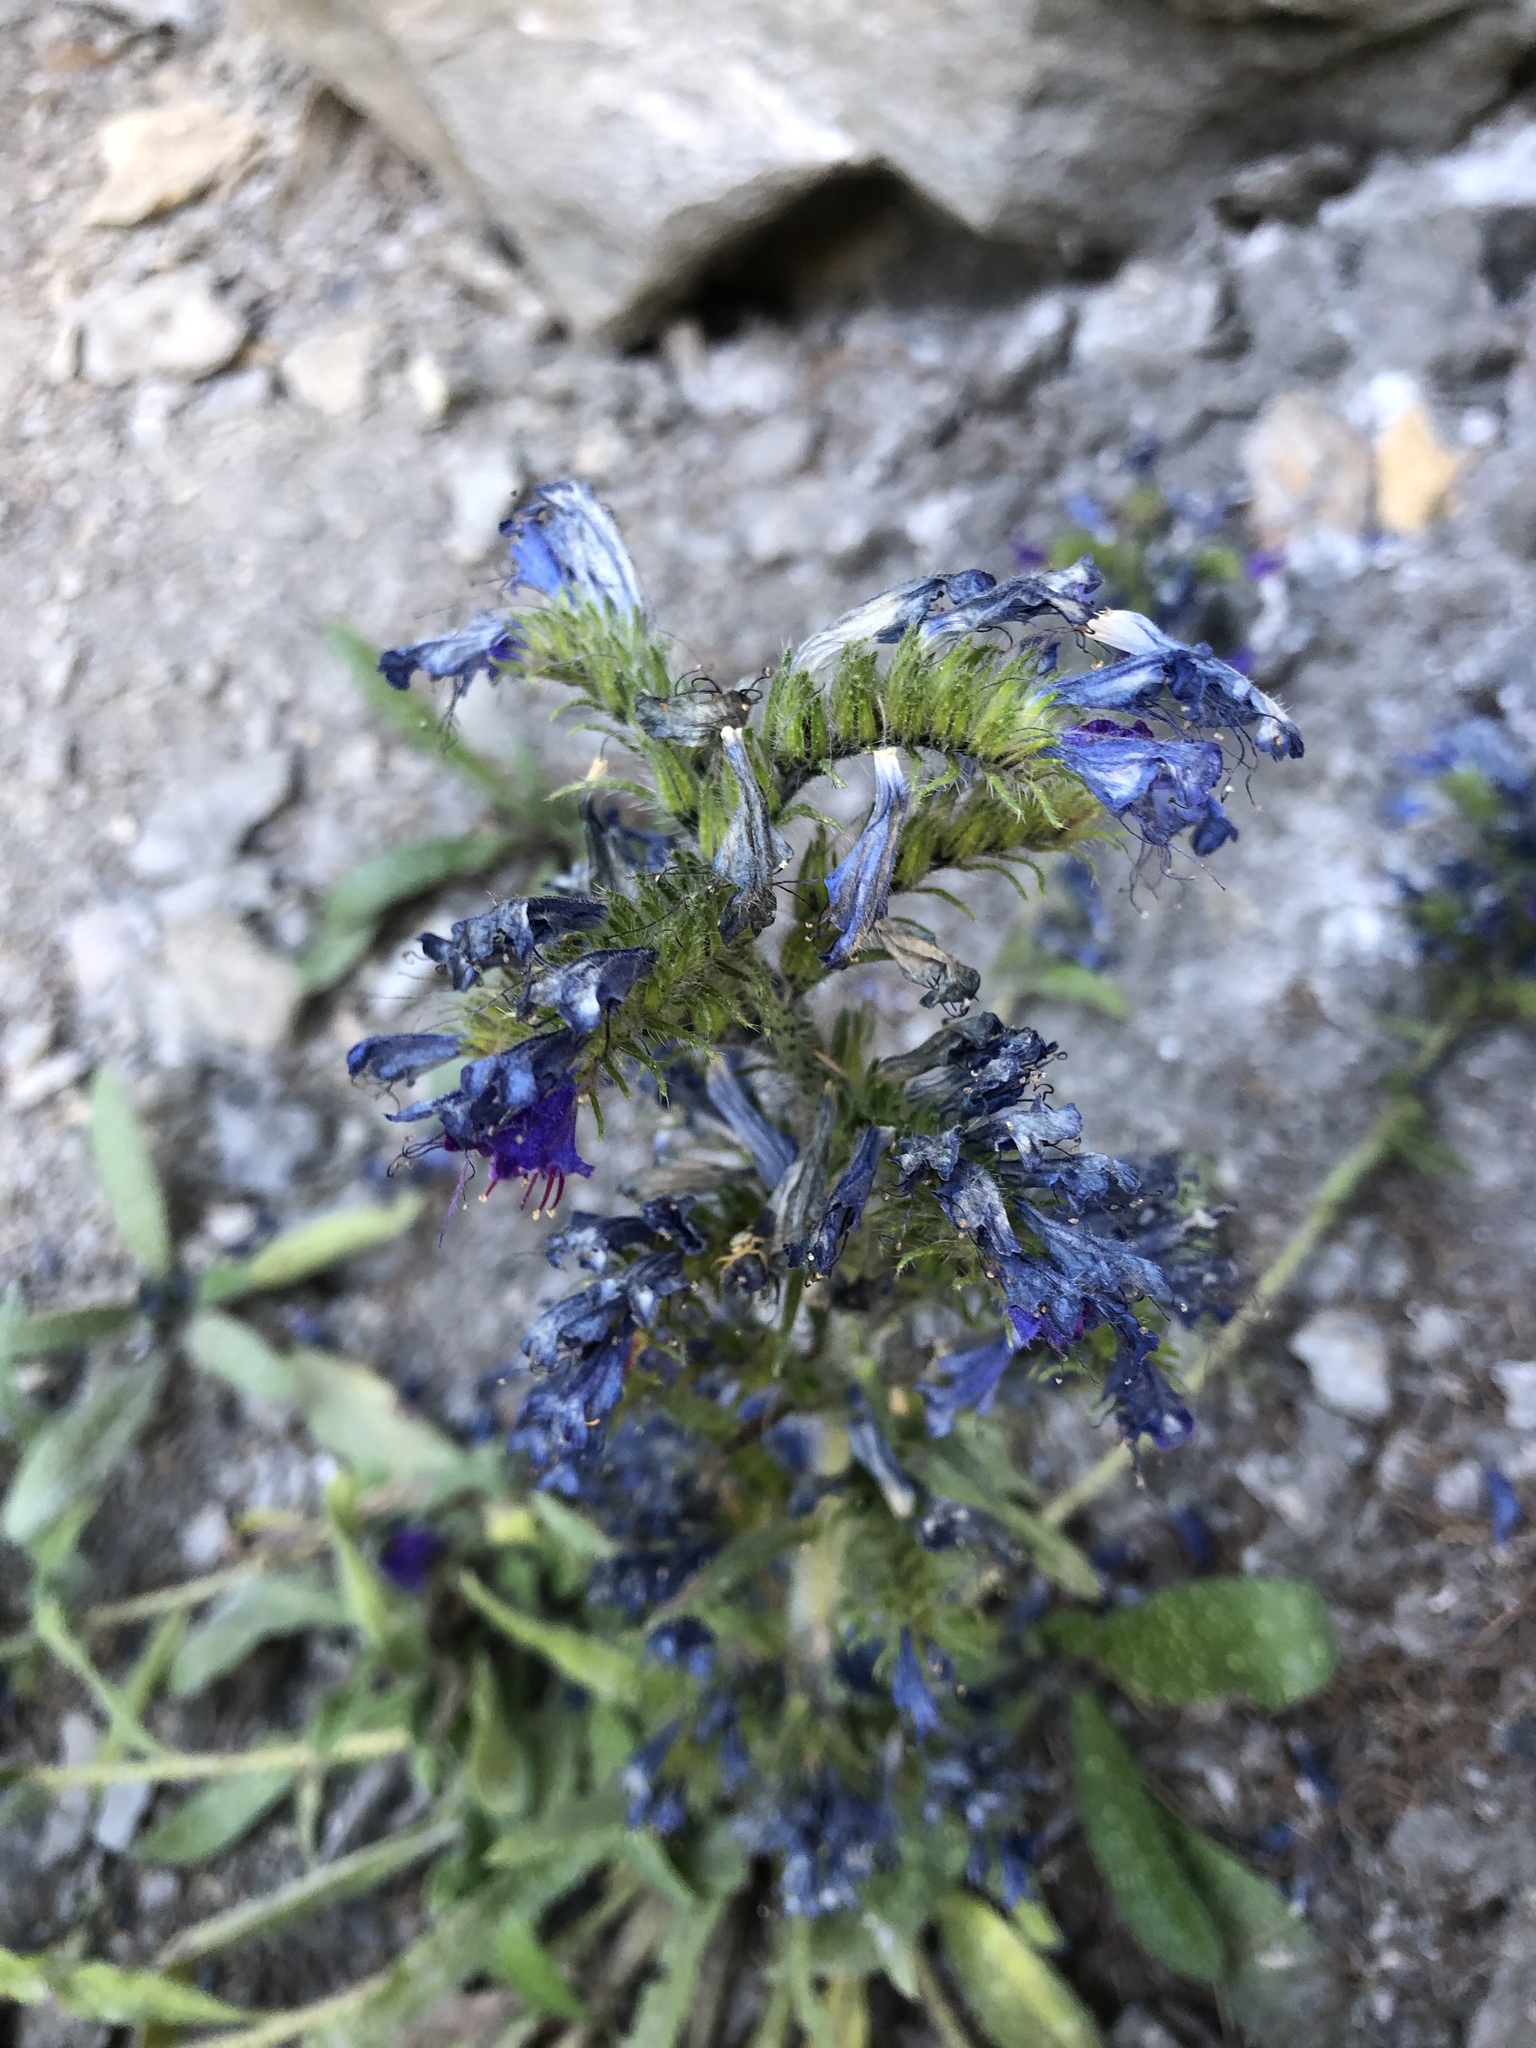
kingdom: Plantae
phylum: Tracheophyta
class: Magnoliopsida
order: Boraginales
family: Boraginaceae
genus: Echium
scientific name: Echium vulgare
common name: Common viper's bugloss
